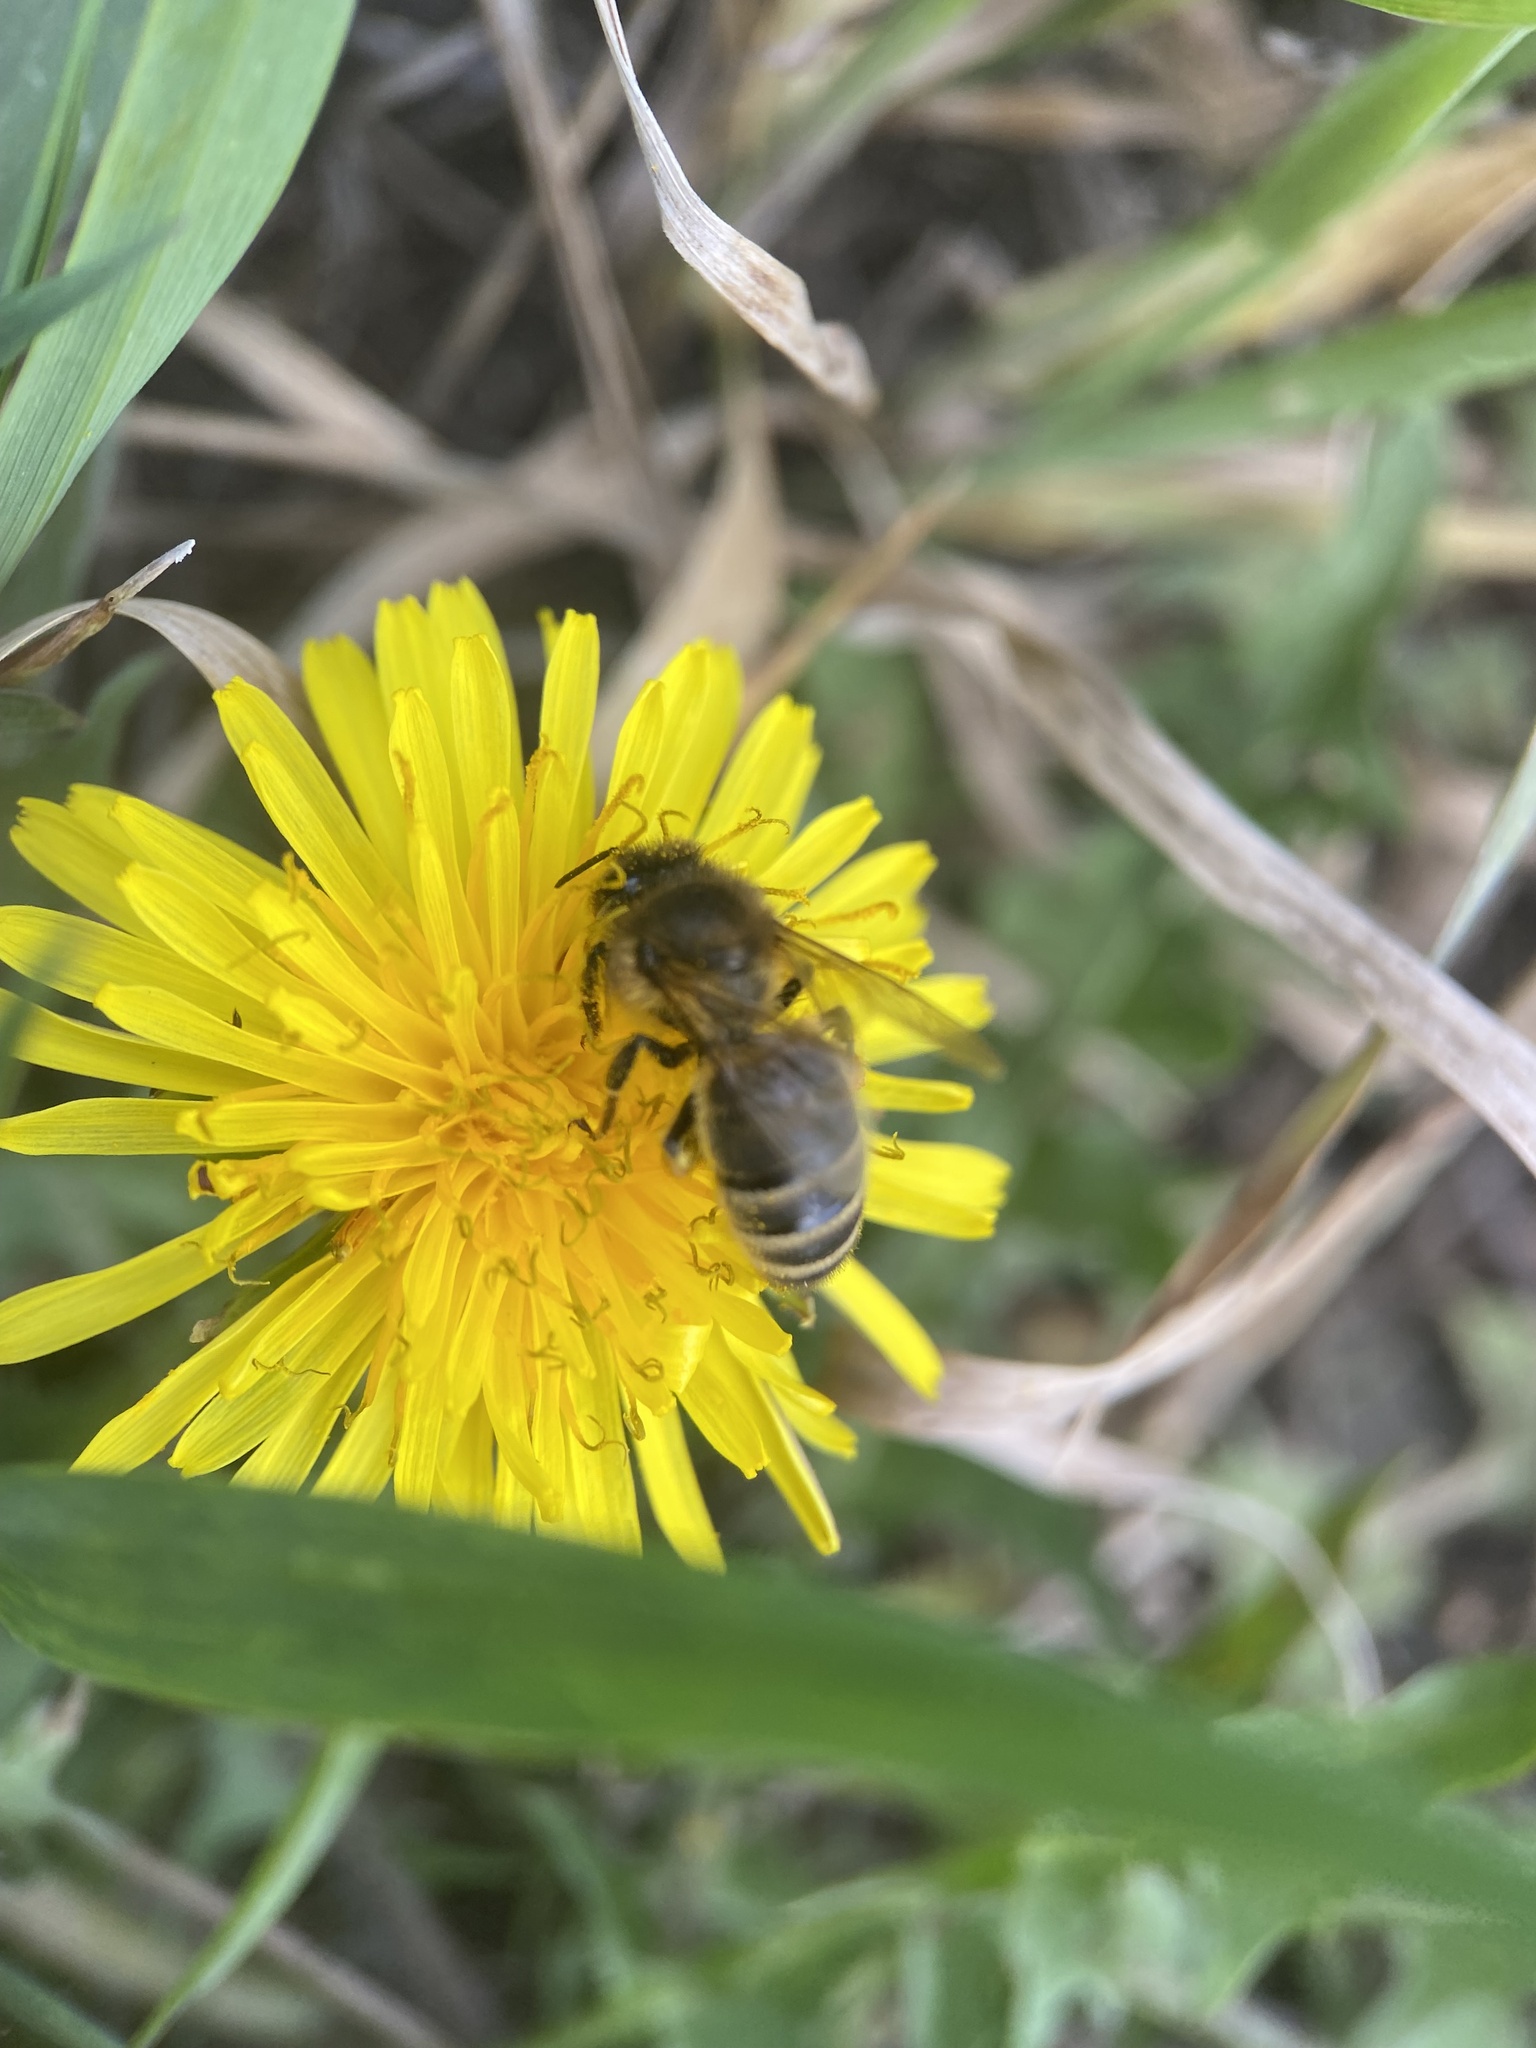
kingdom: Animalia
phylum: Arthropoda
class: Insecta
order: Hymenoptera
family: Apidae
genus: Apis
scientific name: Apis mellifera
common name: Honey bee
